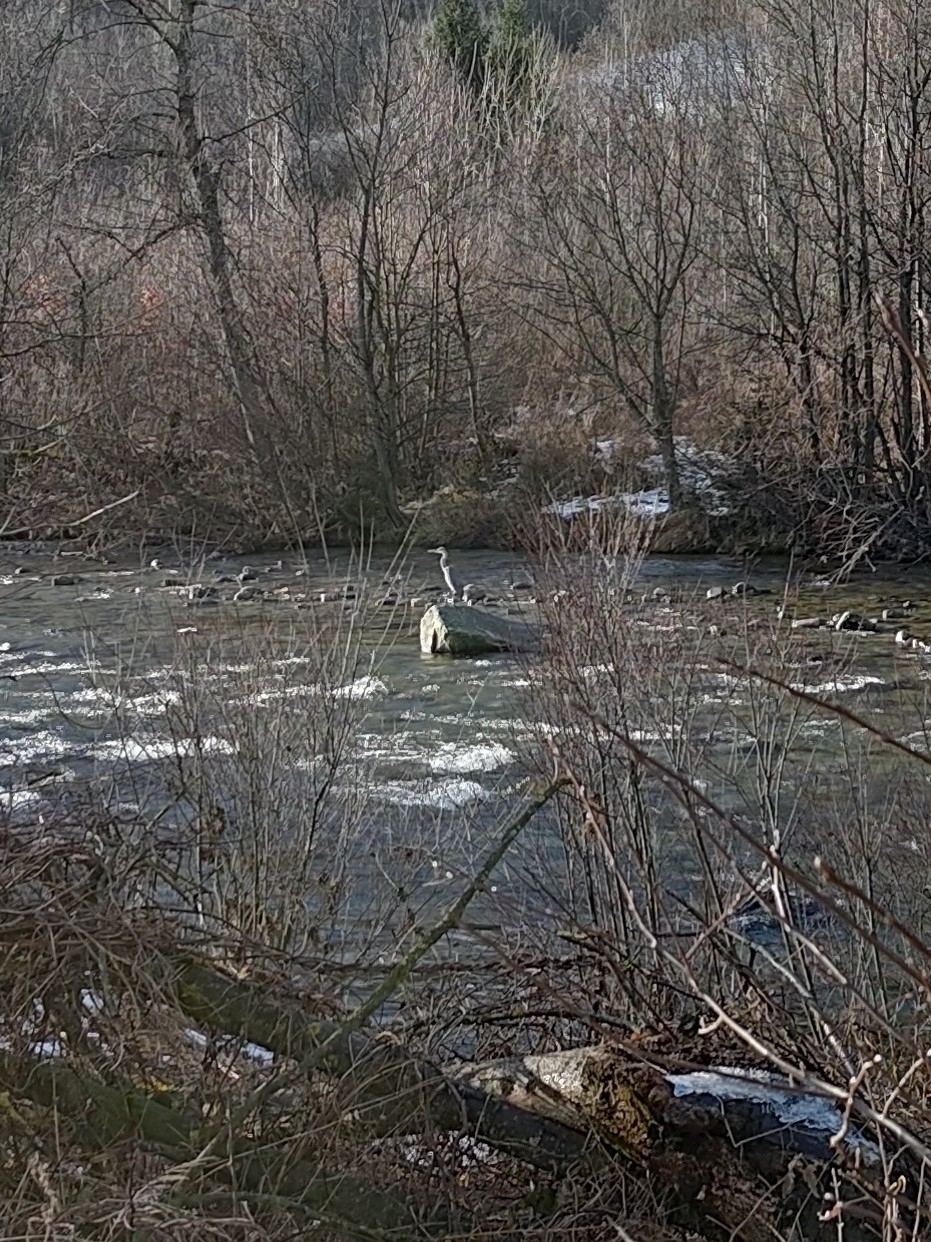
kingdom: Animalia
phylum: Chordata
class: Aves
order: Pelecaniformes
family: Ardeidae
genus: Ardea
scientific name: Ardea cinerea
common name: Grey heron
